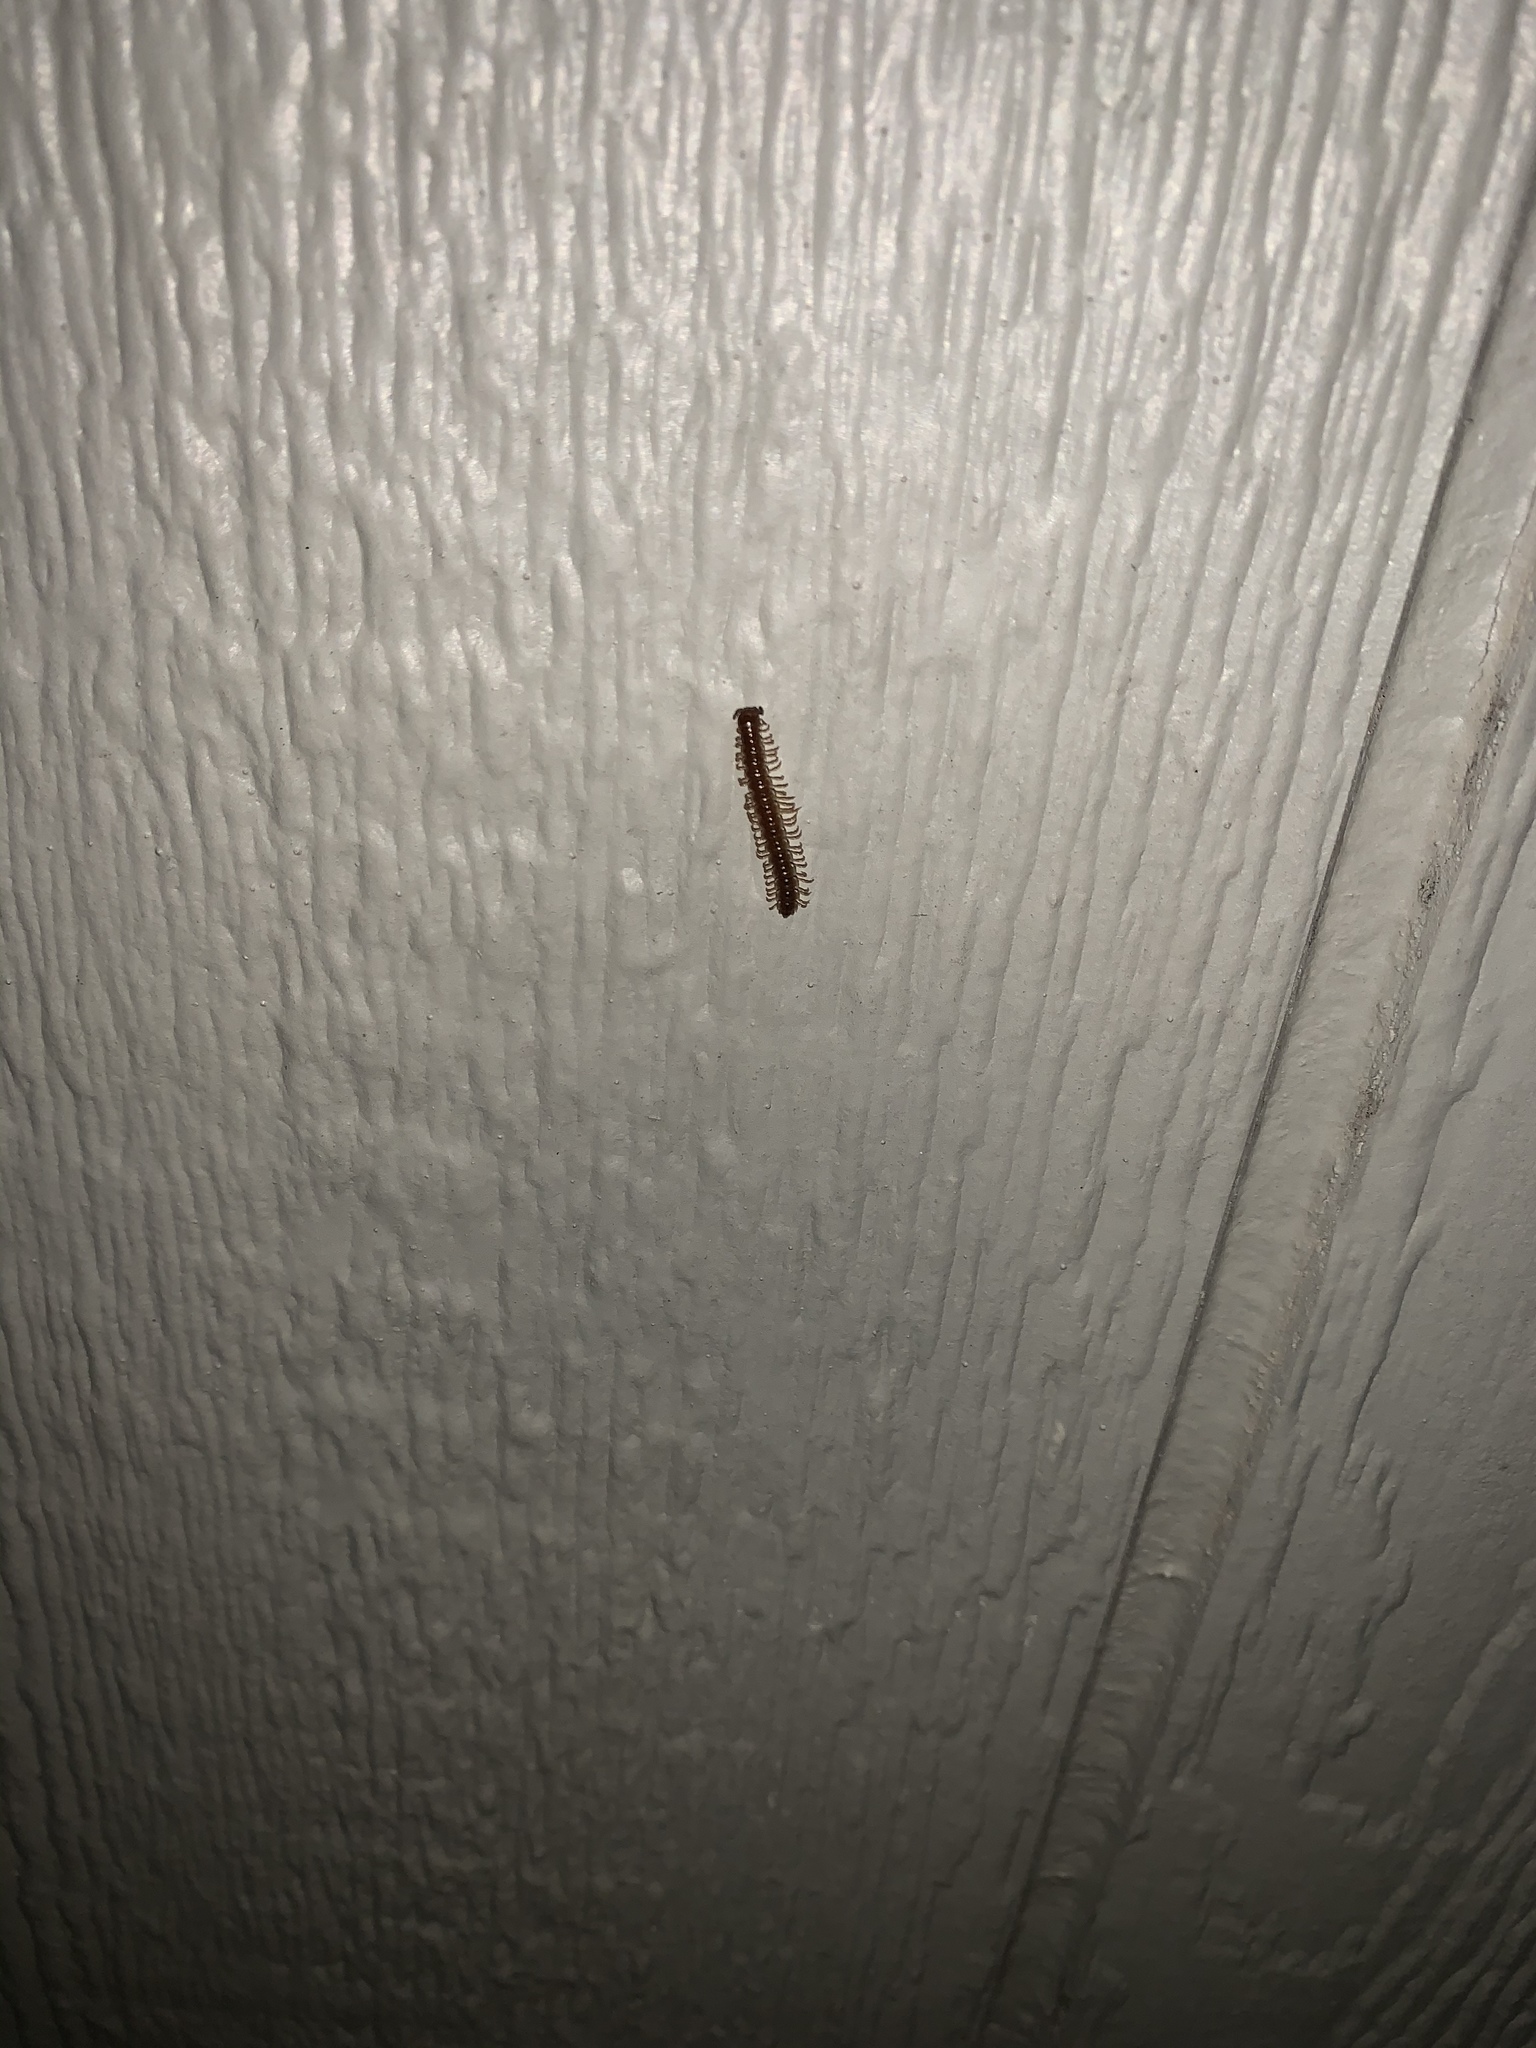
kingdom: Animalia
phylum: Arthropoda
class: Diplopoda
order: Polydesmida
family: Paradoxosomatidae
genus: Oxidus
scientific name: Oxidus gracilis
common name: Greenhouse millipede
